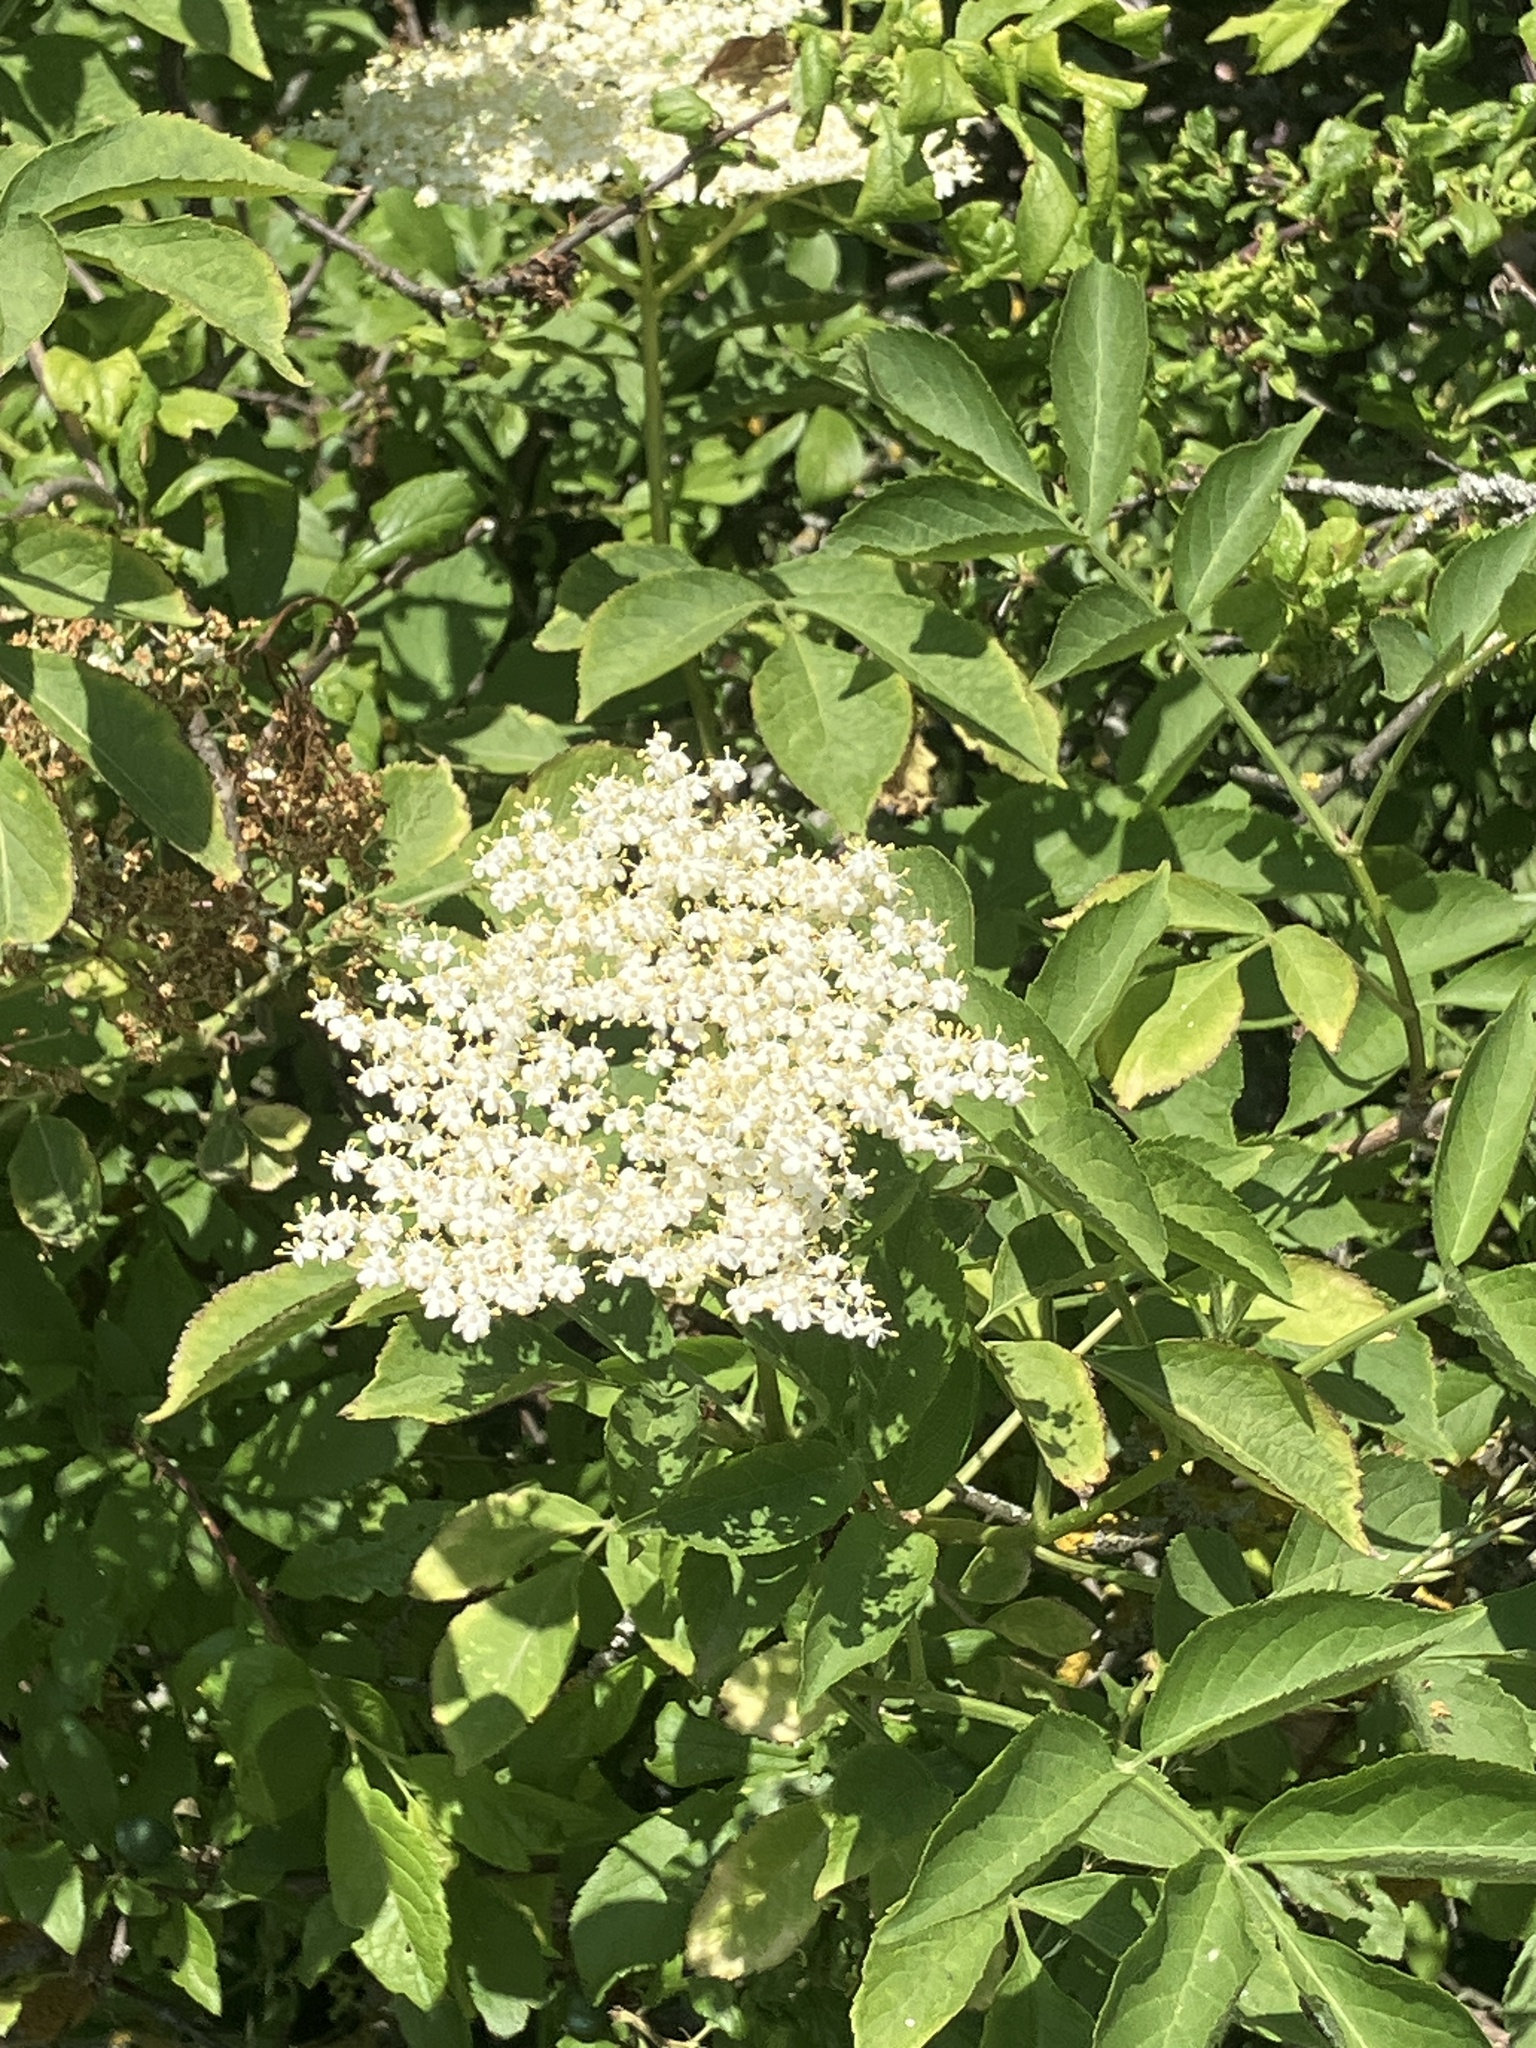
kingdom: Plantae
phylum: Tracheophyta
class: Magnoliopsida
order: Dipsacales
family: Viburnaceae
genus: Sambucus
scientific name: Sambucus nigra
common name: Elder
